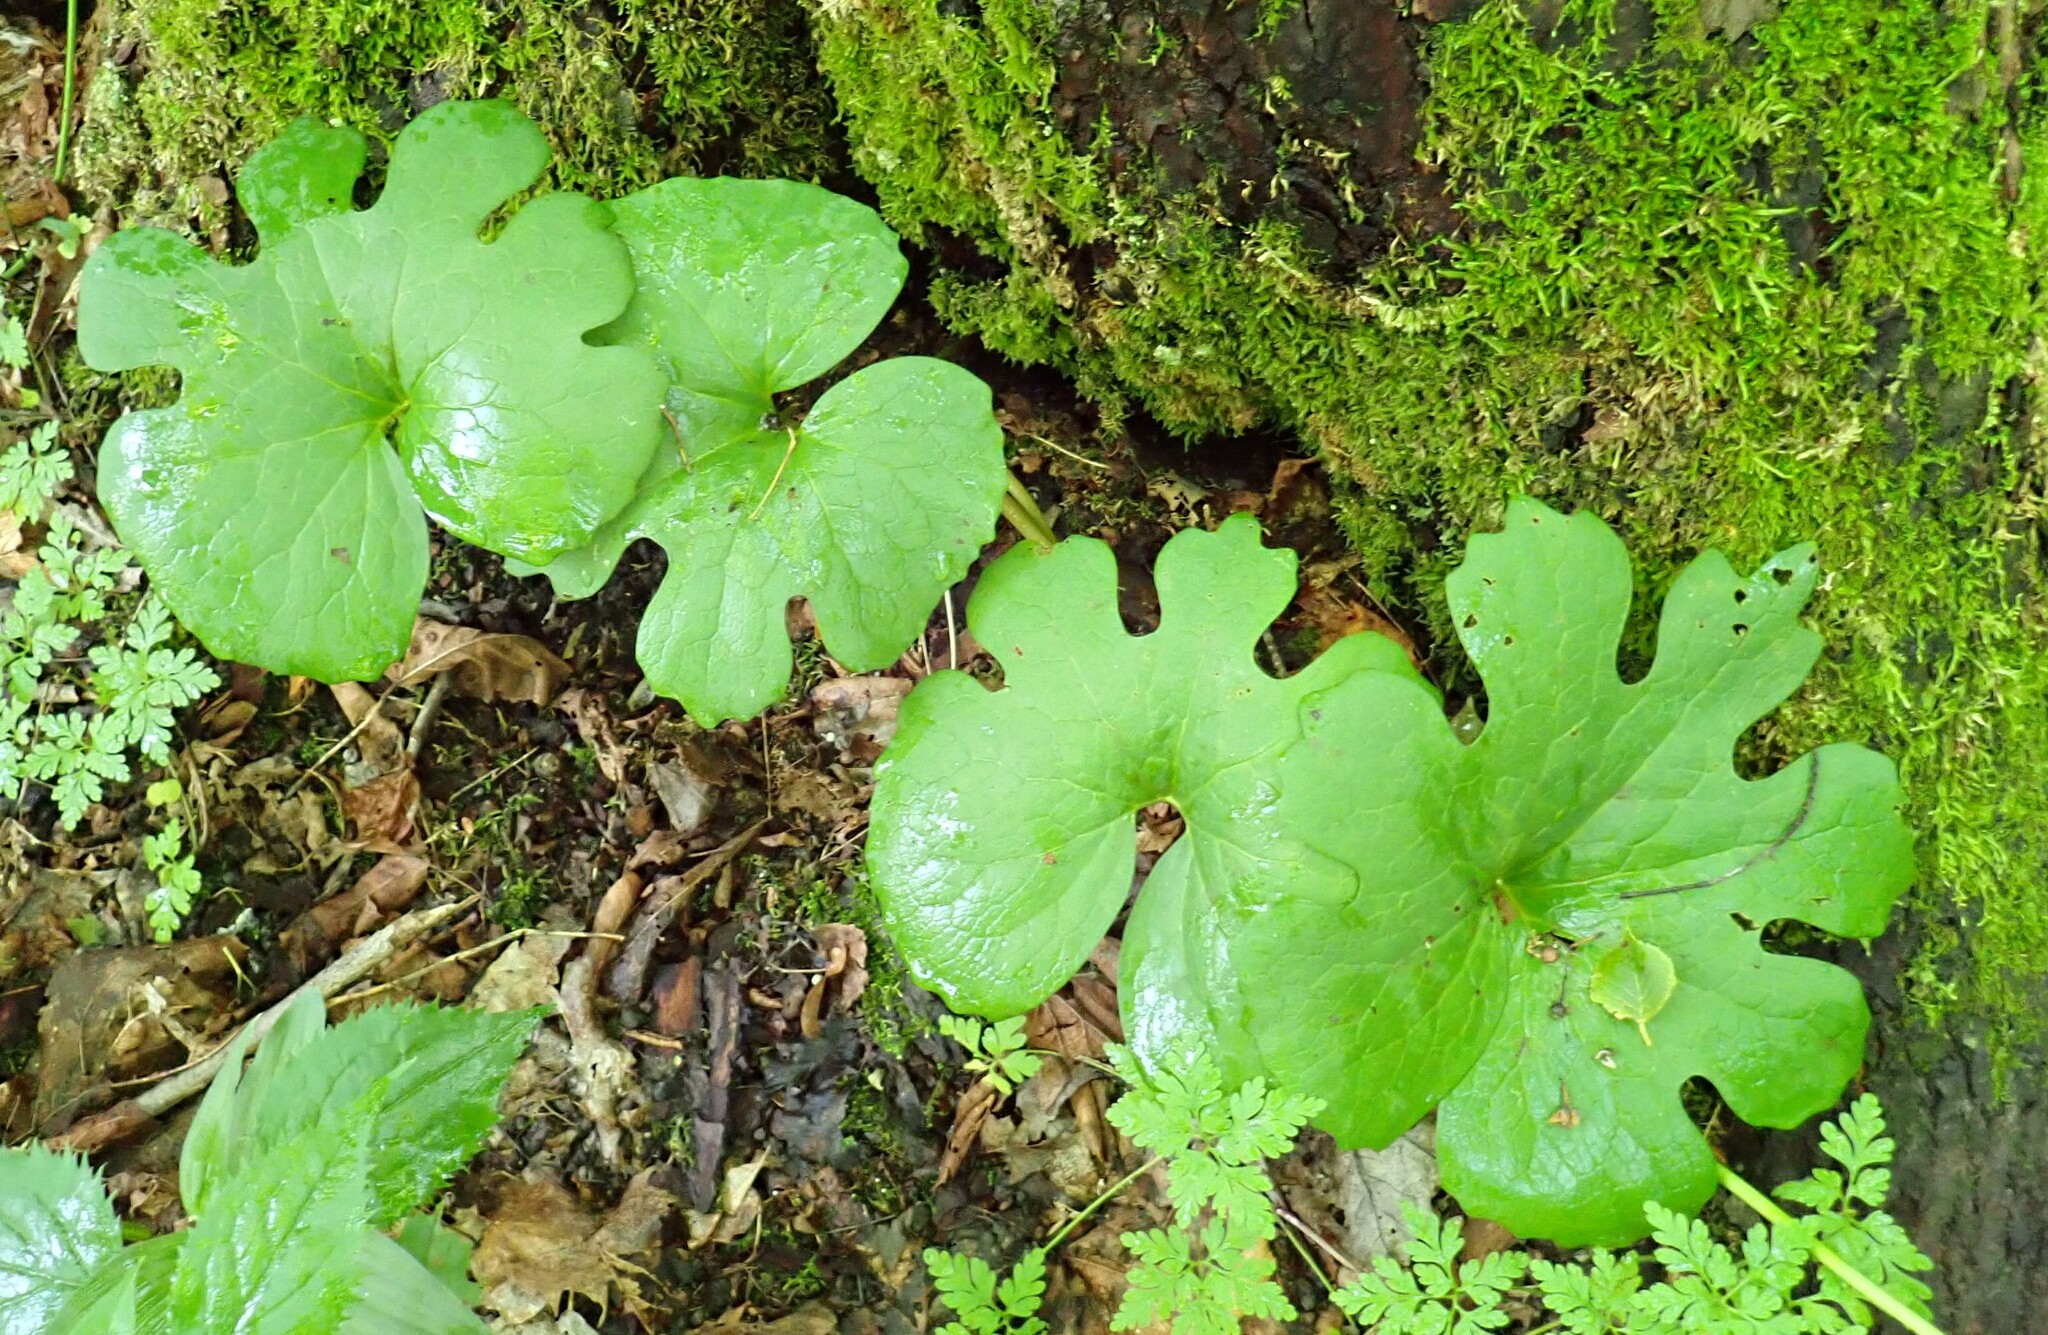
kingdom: Plantae
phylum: Tracheophyta
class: Magnoliopsida
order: Ranunculales
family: Papaveraceae
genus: Sanguinaria
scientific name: Sanguinaria canadensis
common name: Bloodroot
